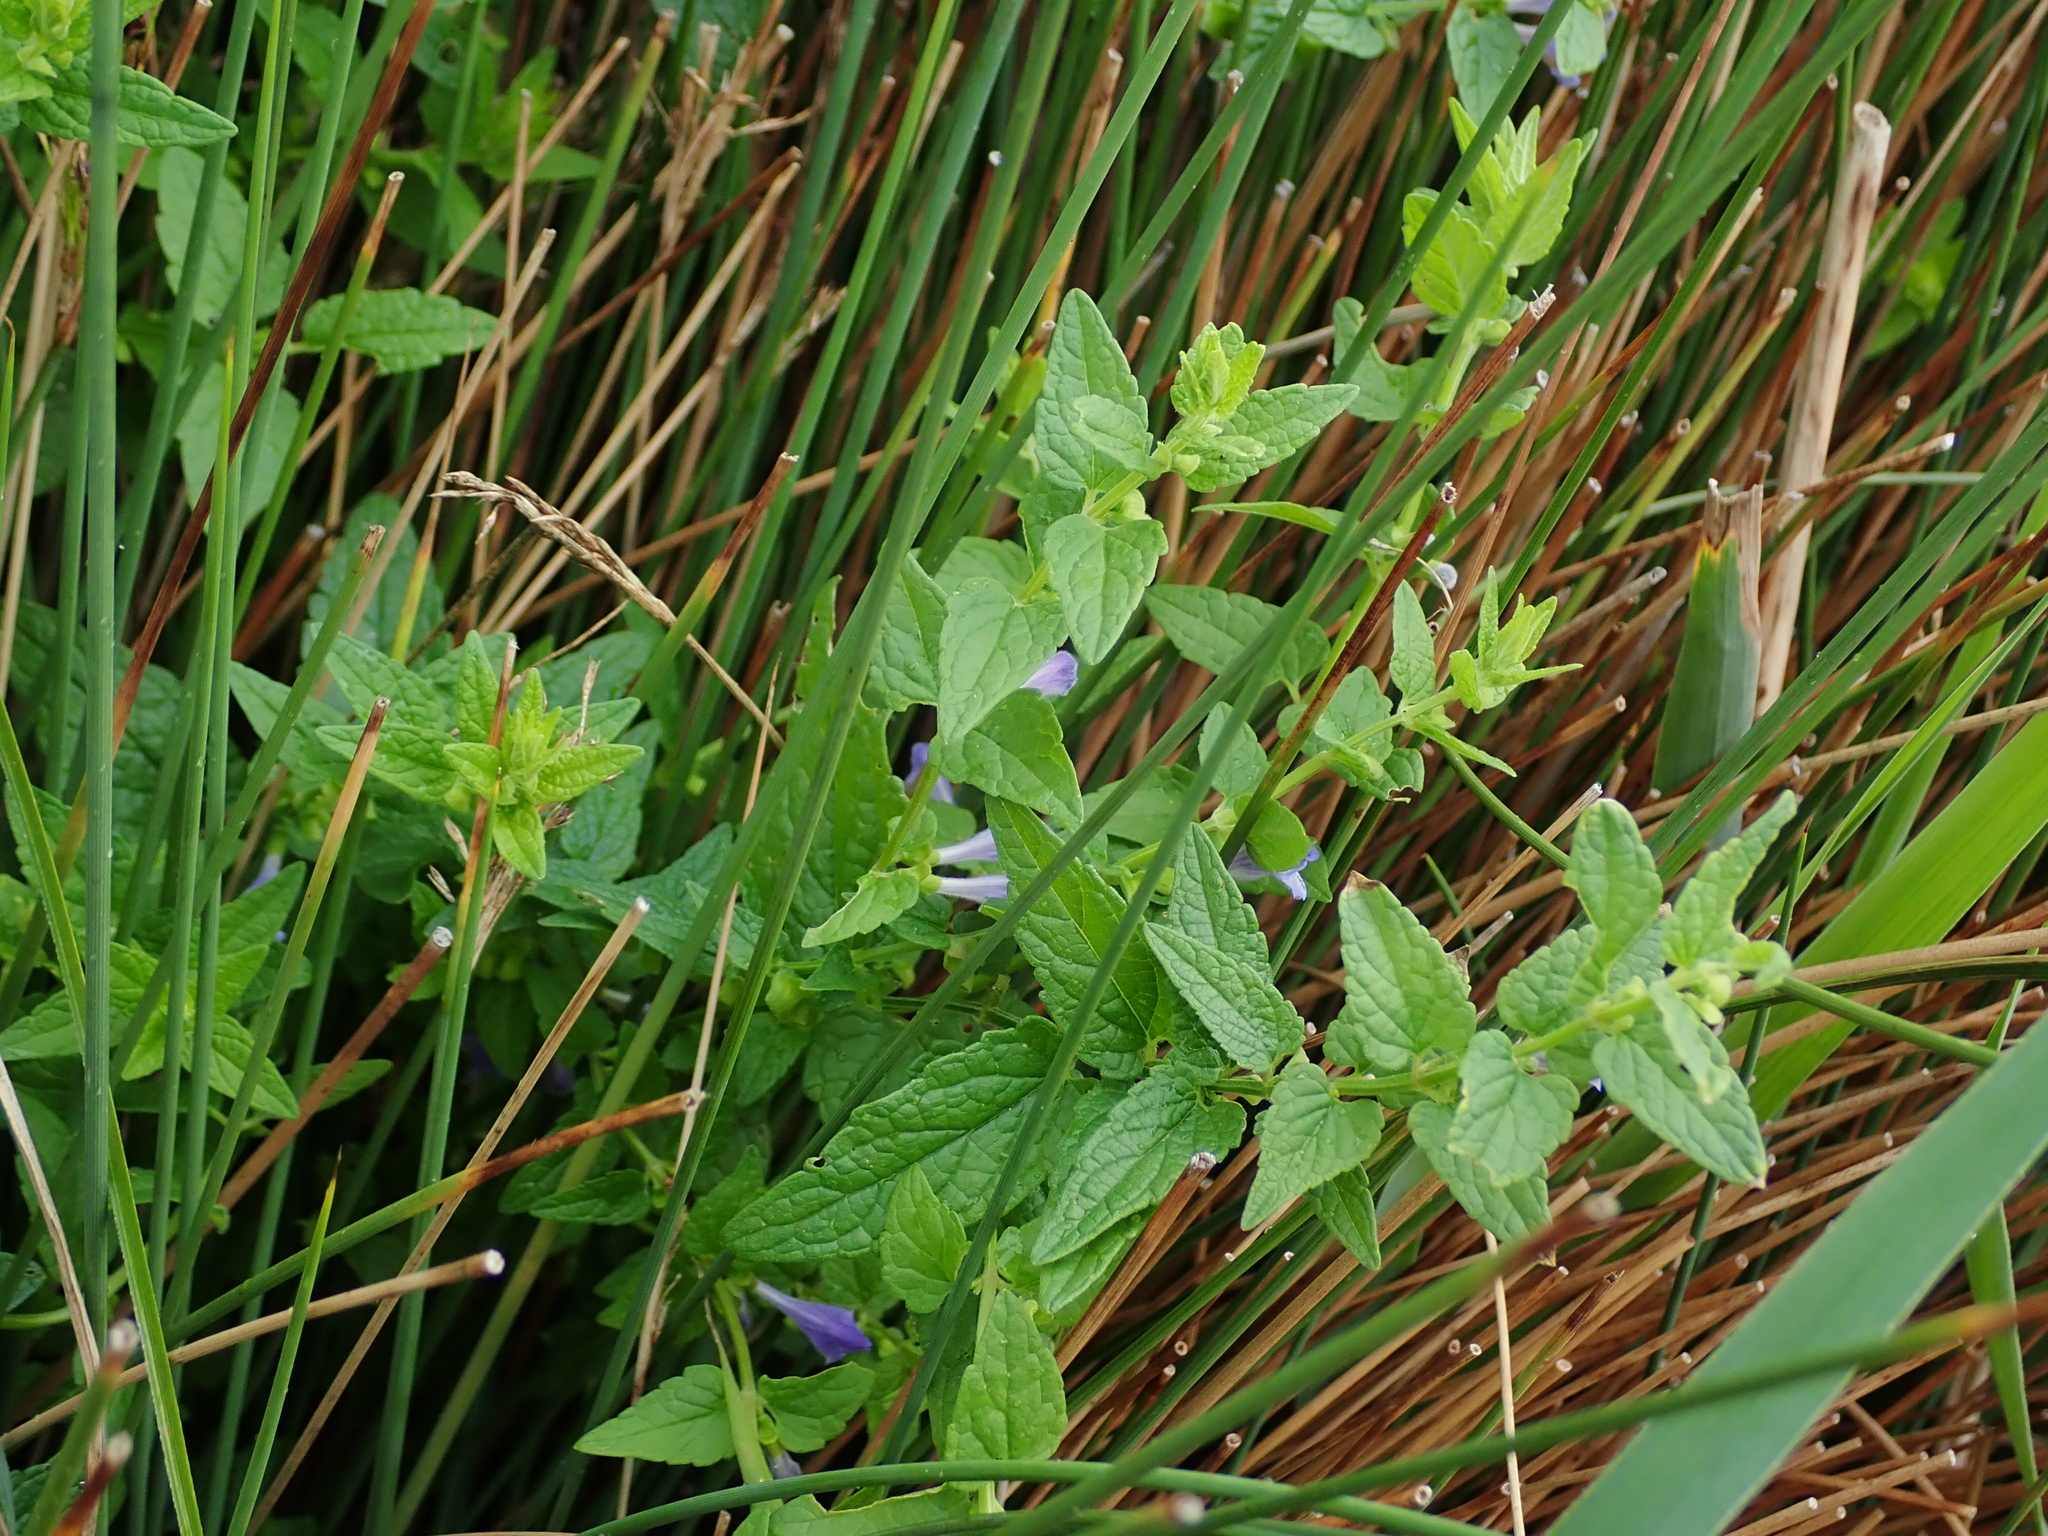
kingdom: Plantae
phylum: Tracheophyta
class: Magnoliopsida
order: Lamiales
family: Lamiaceae
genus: Scutellaria
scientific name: Scutellaria galericulata
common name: Skullcap
